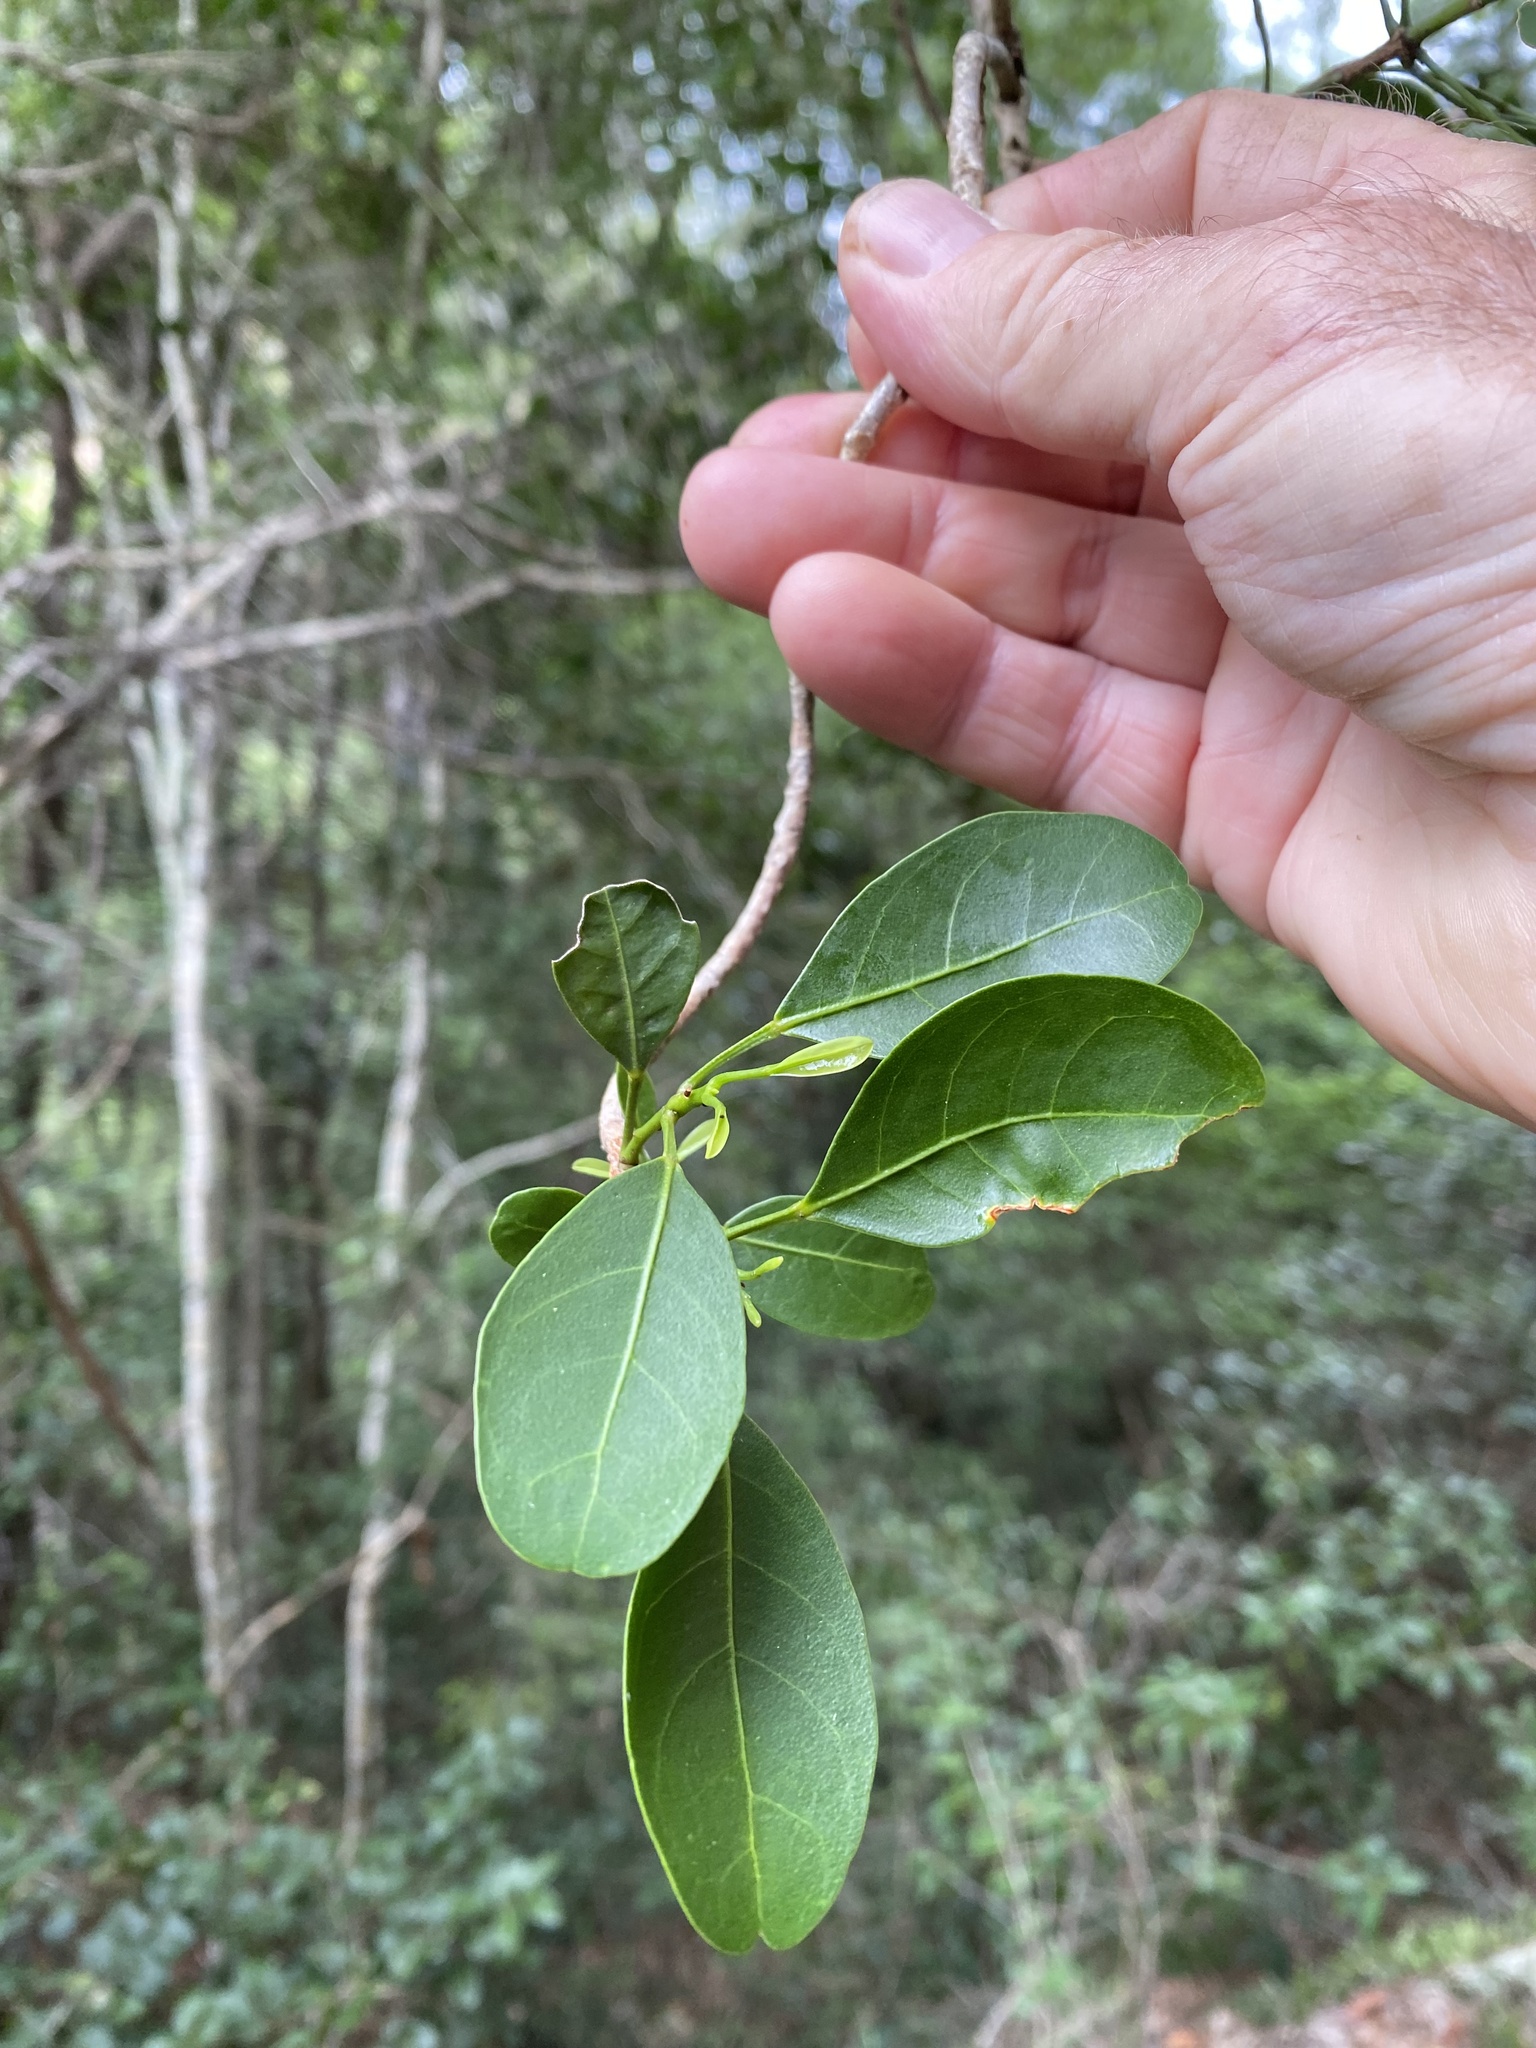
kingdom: Plantae
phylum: Tracheophyta
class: Magnoliopsida
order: Sapindales
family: Rutaceae
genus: Acronychia
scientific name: Acronychia laevis
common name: Hard aspen
